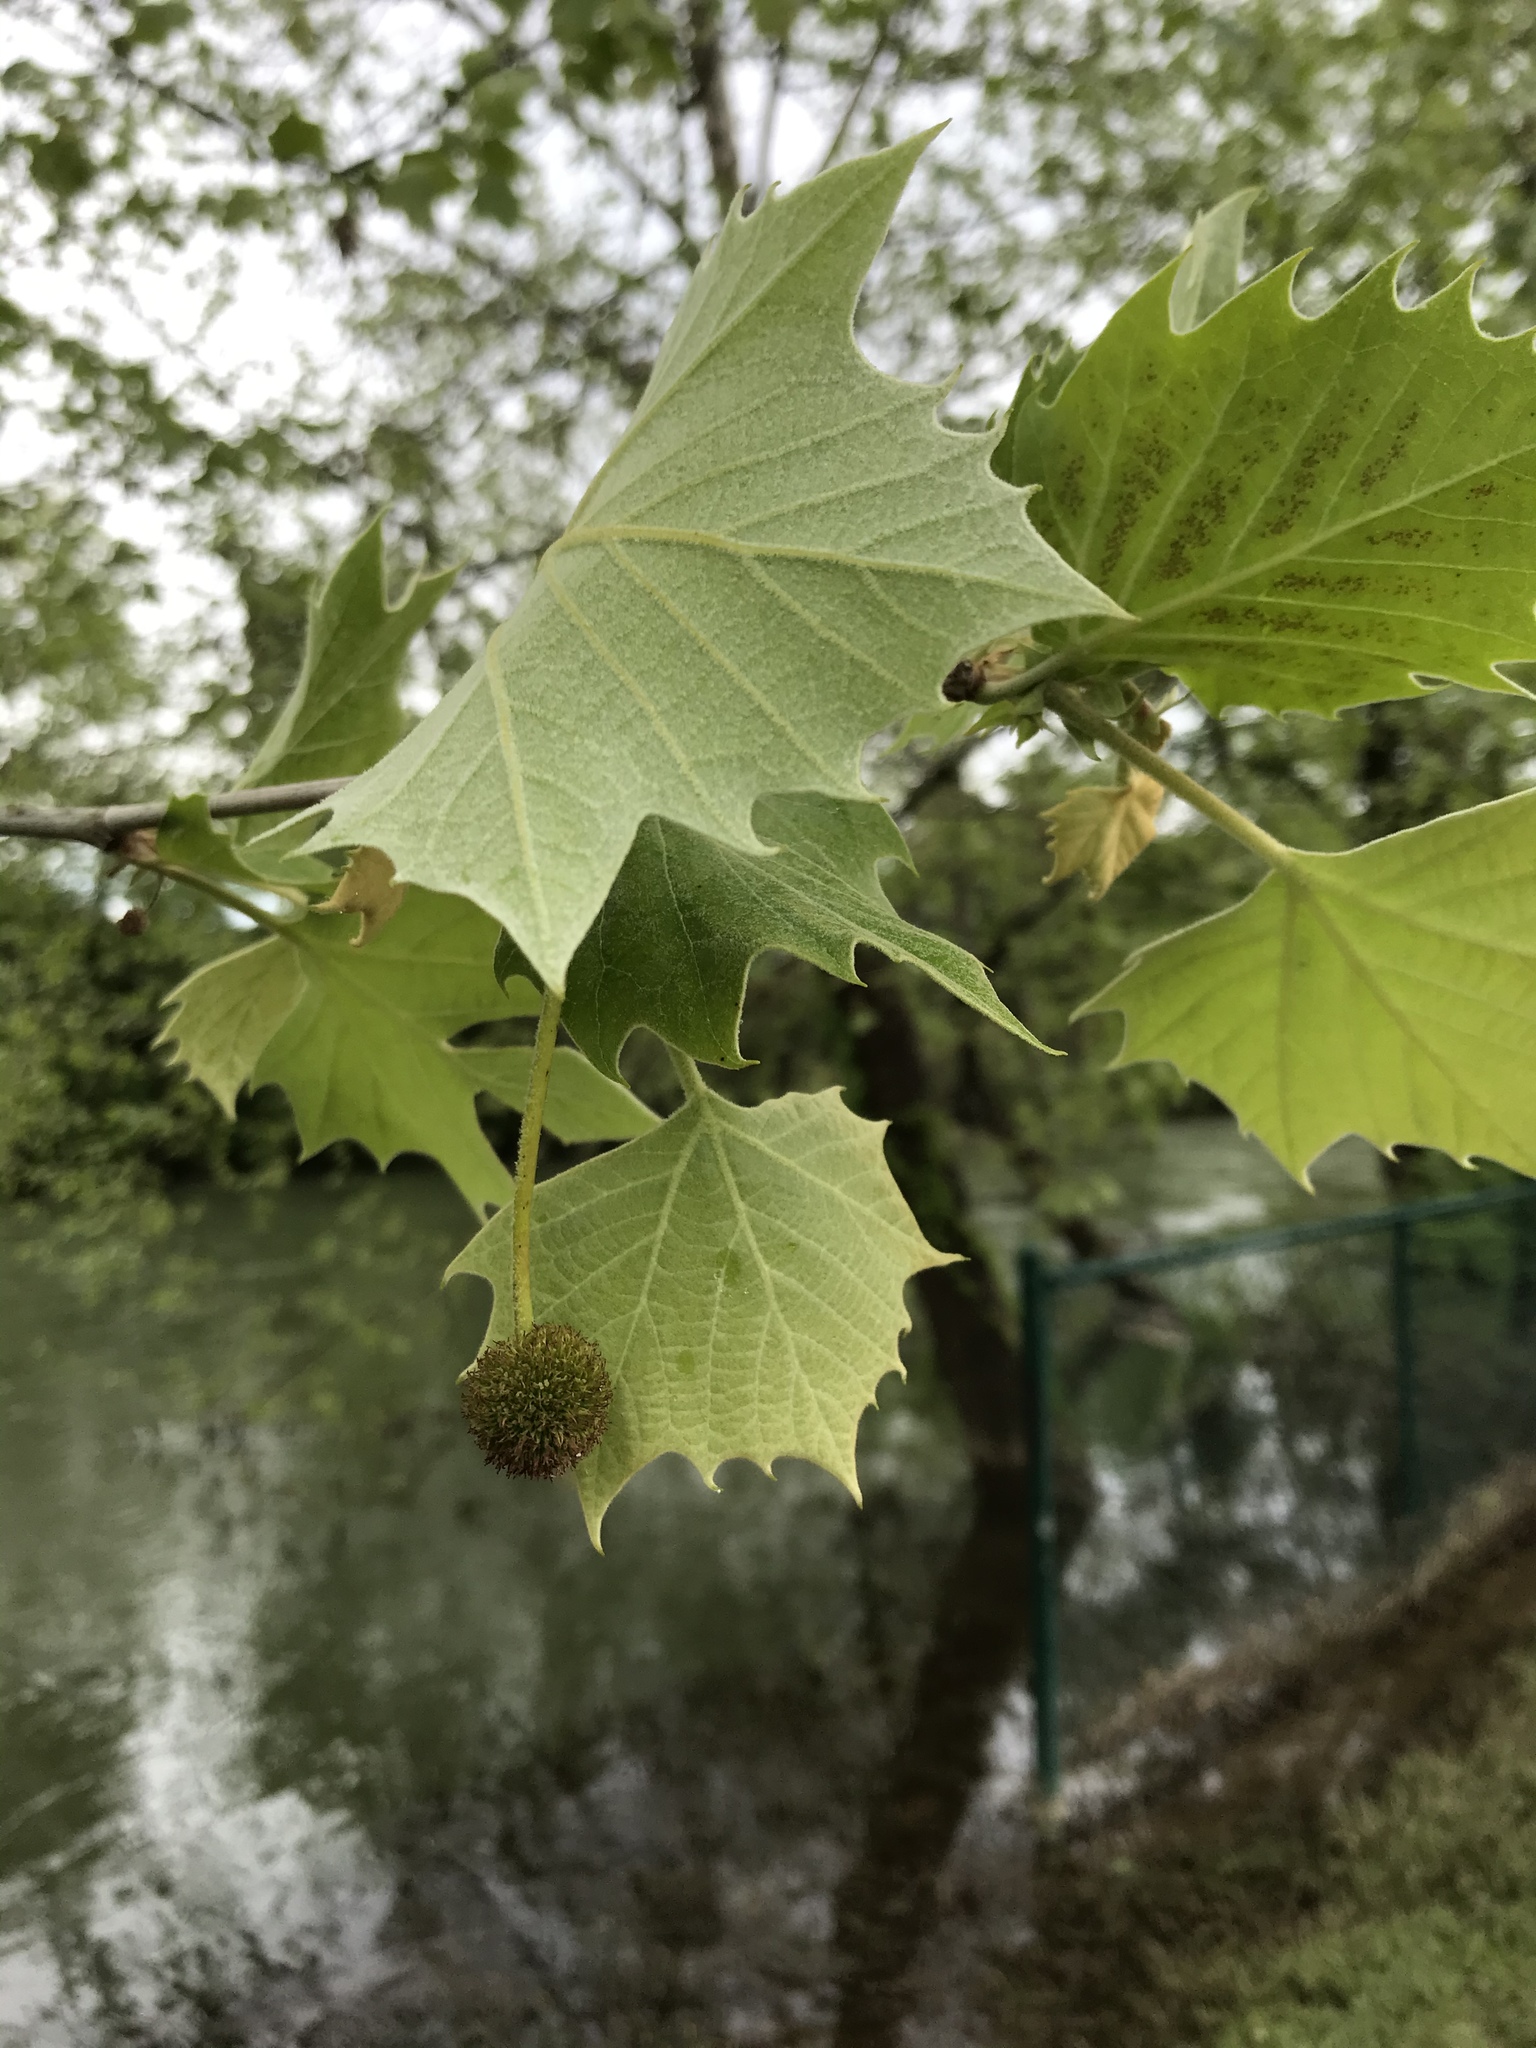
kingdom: Plantae
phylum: Tracheophyta
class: Magnoliopsida
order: Proteales
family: Platanaceae
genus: Platanus
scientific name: Platanus occidentalis
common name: American sycamore
